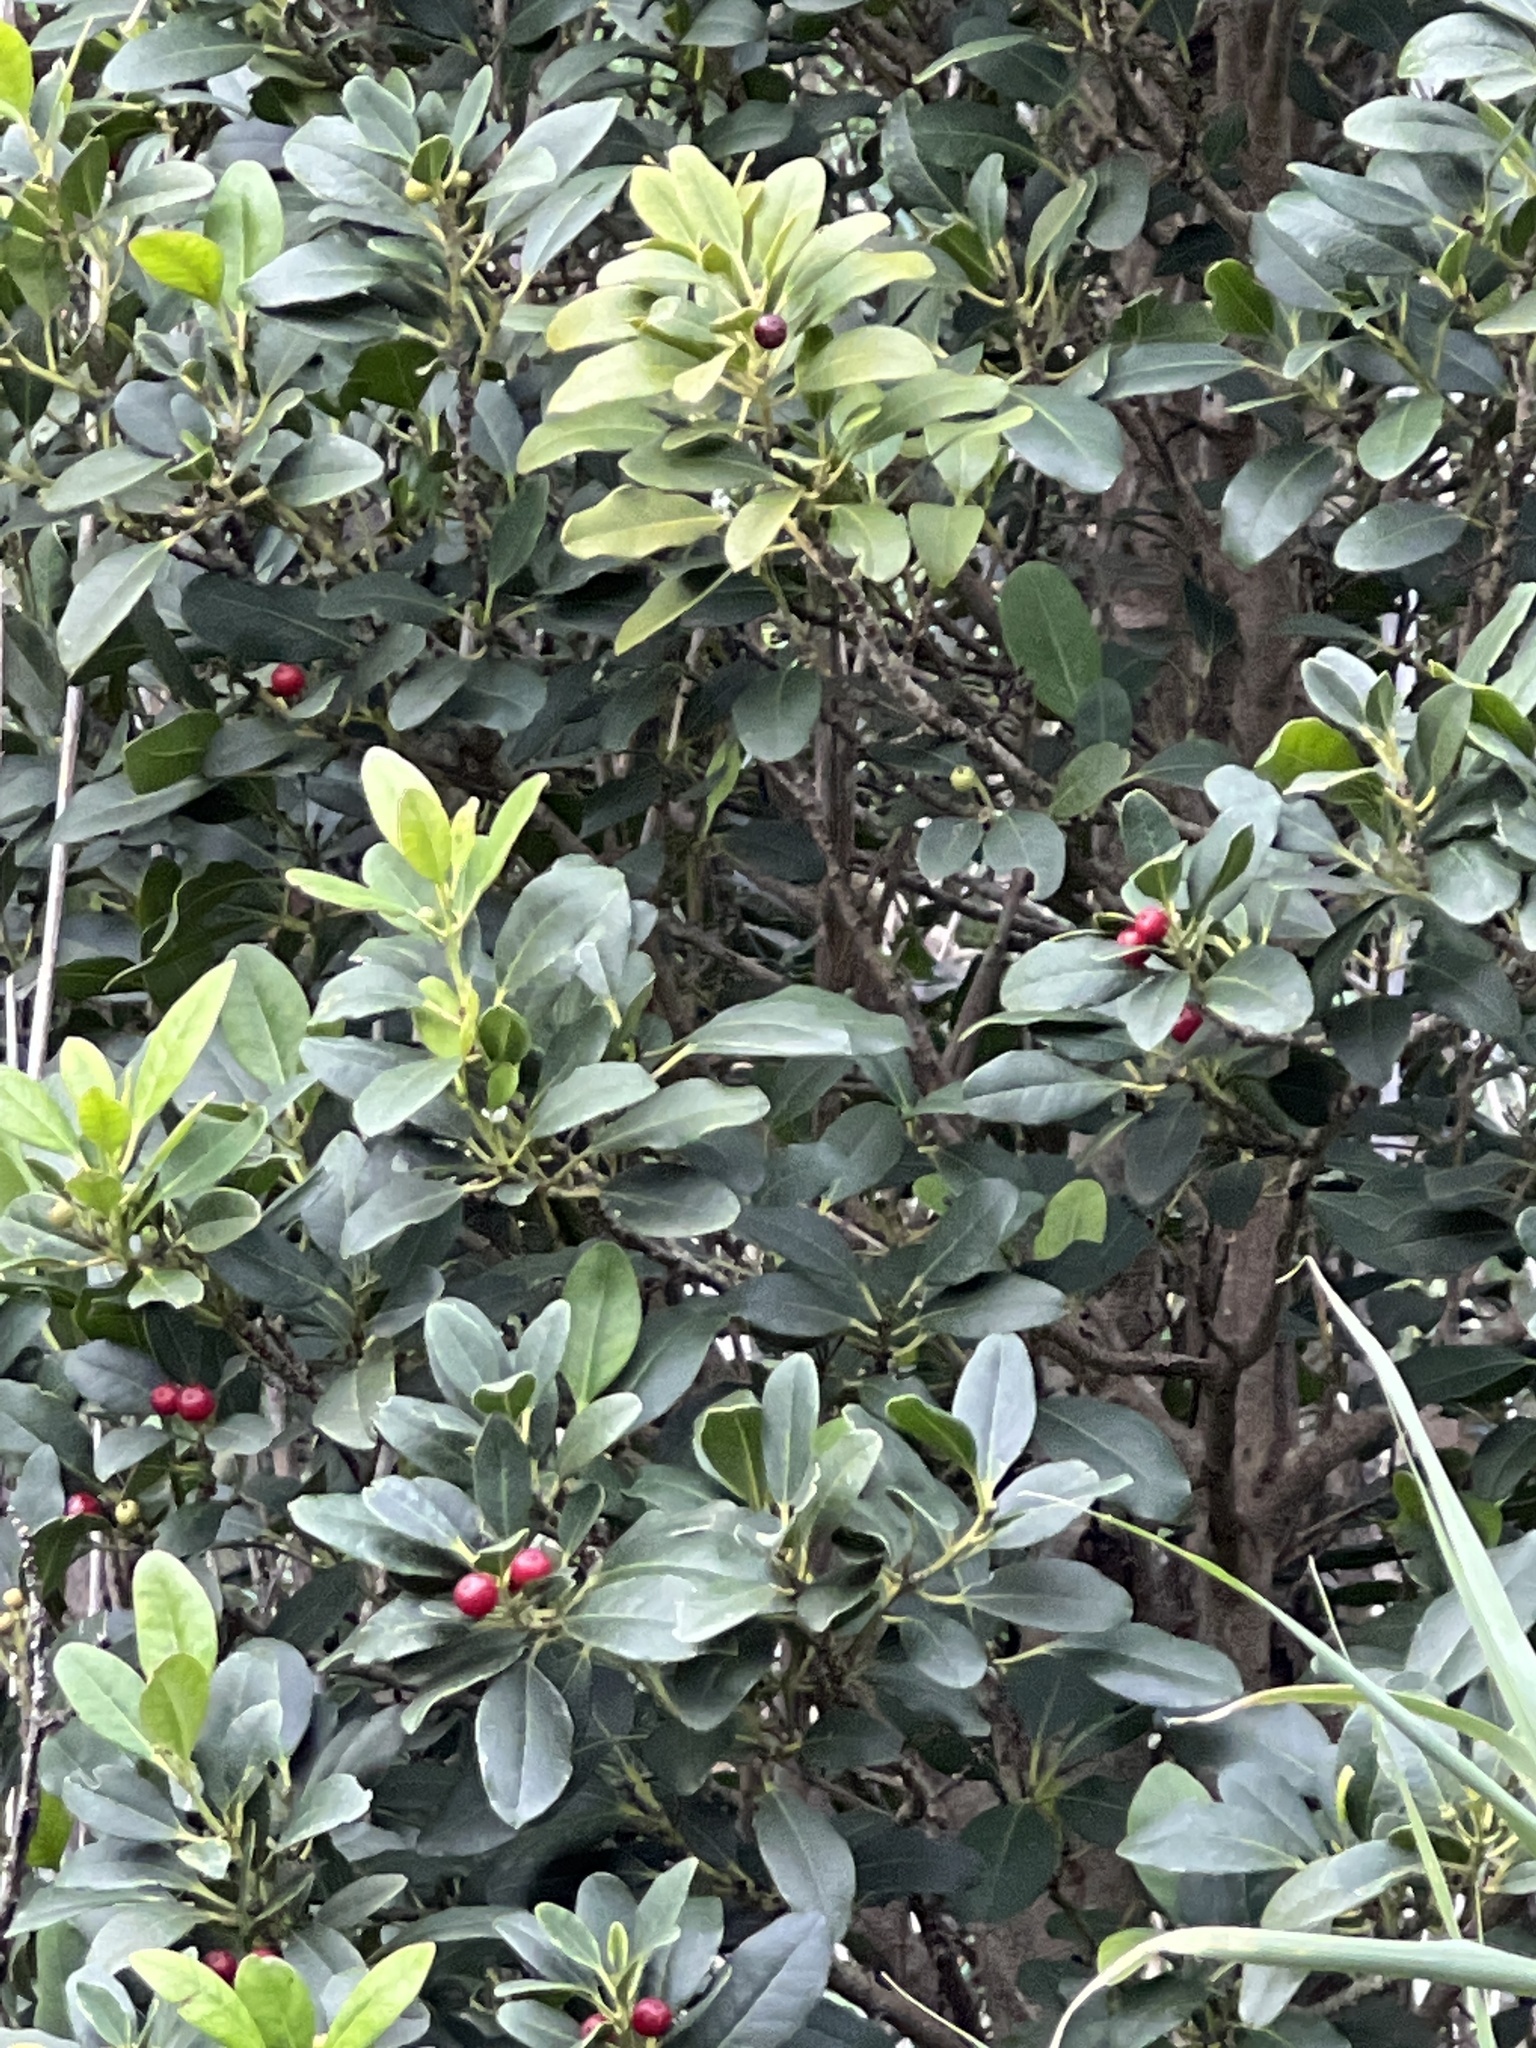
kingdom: Plantae
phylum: Tracheophyta
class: Magnoliopsida
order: Aquifoliales
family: Aquifoliaceae
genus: Ilex
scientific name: Ilex canariensis
